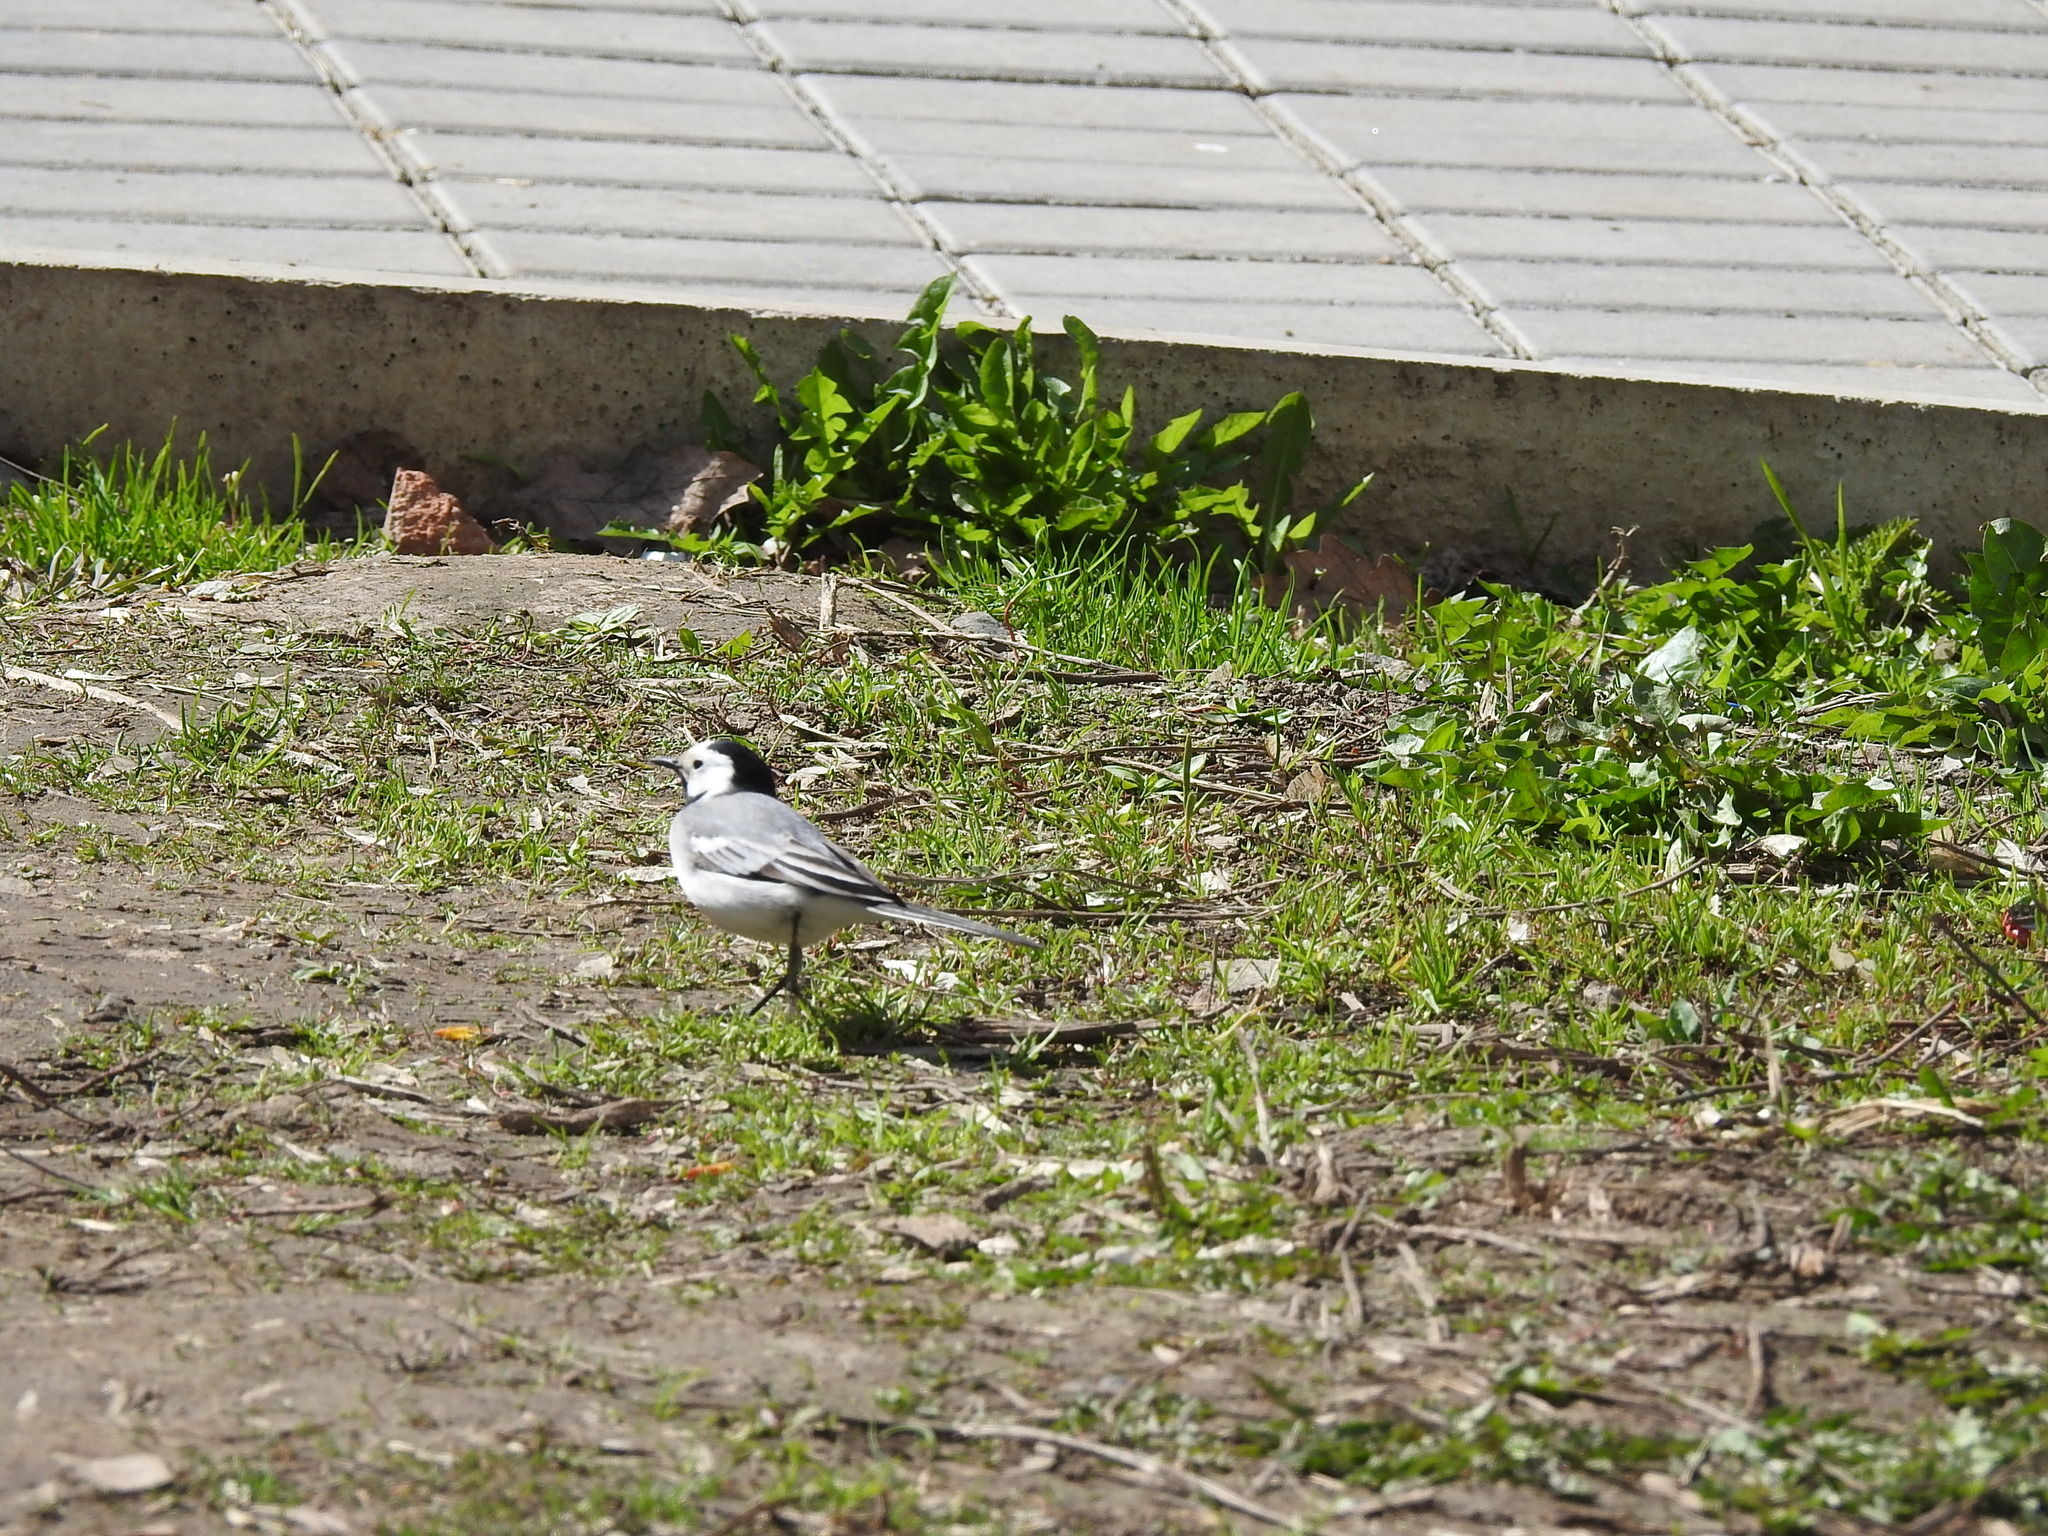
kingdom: Animalia
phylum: Chordata
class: Aves
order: Passeriformes
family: Motacillidae
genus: Motacilla
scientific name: Motacilla alba
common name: White wagtail
